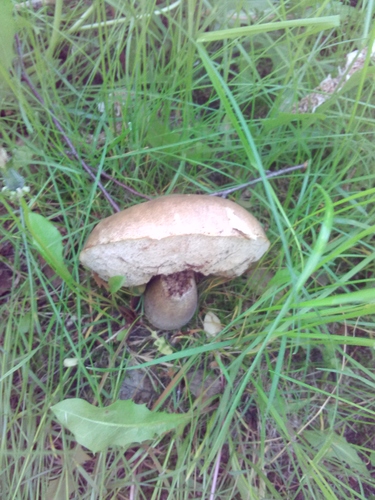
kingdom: Fungi
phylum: Basidiomycota
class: Agaricomycetes
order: Boletales
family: Boletaceae
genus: Leccinum
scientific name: Leccinum scabrum
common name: Blushing bolete
